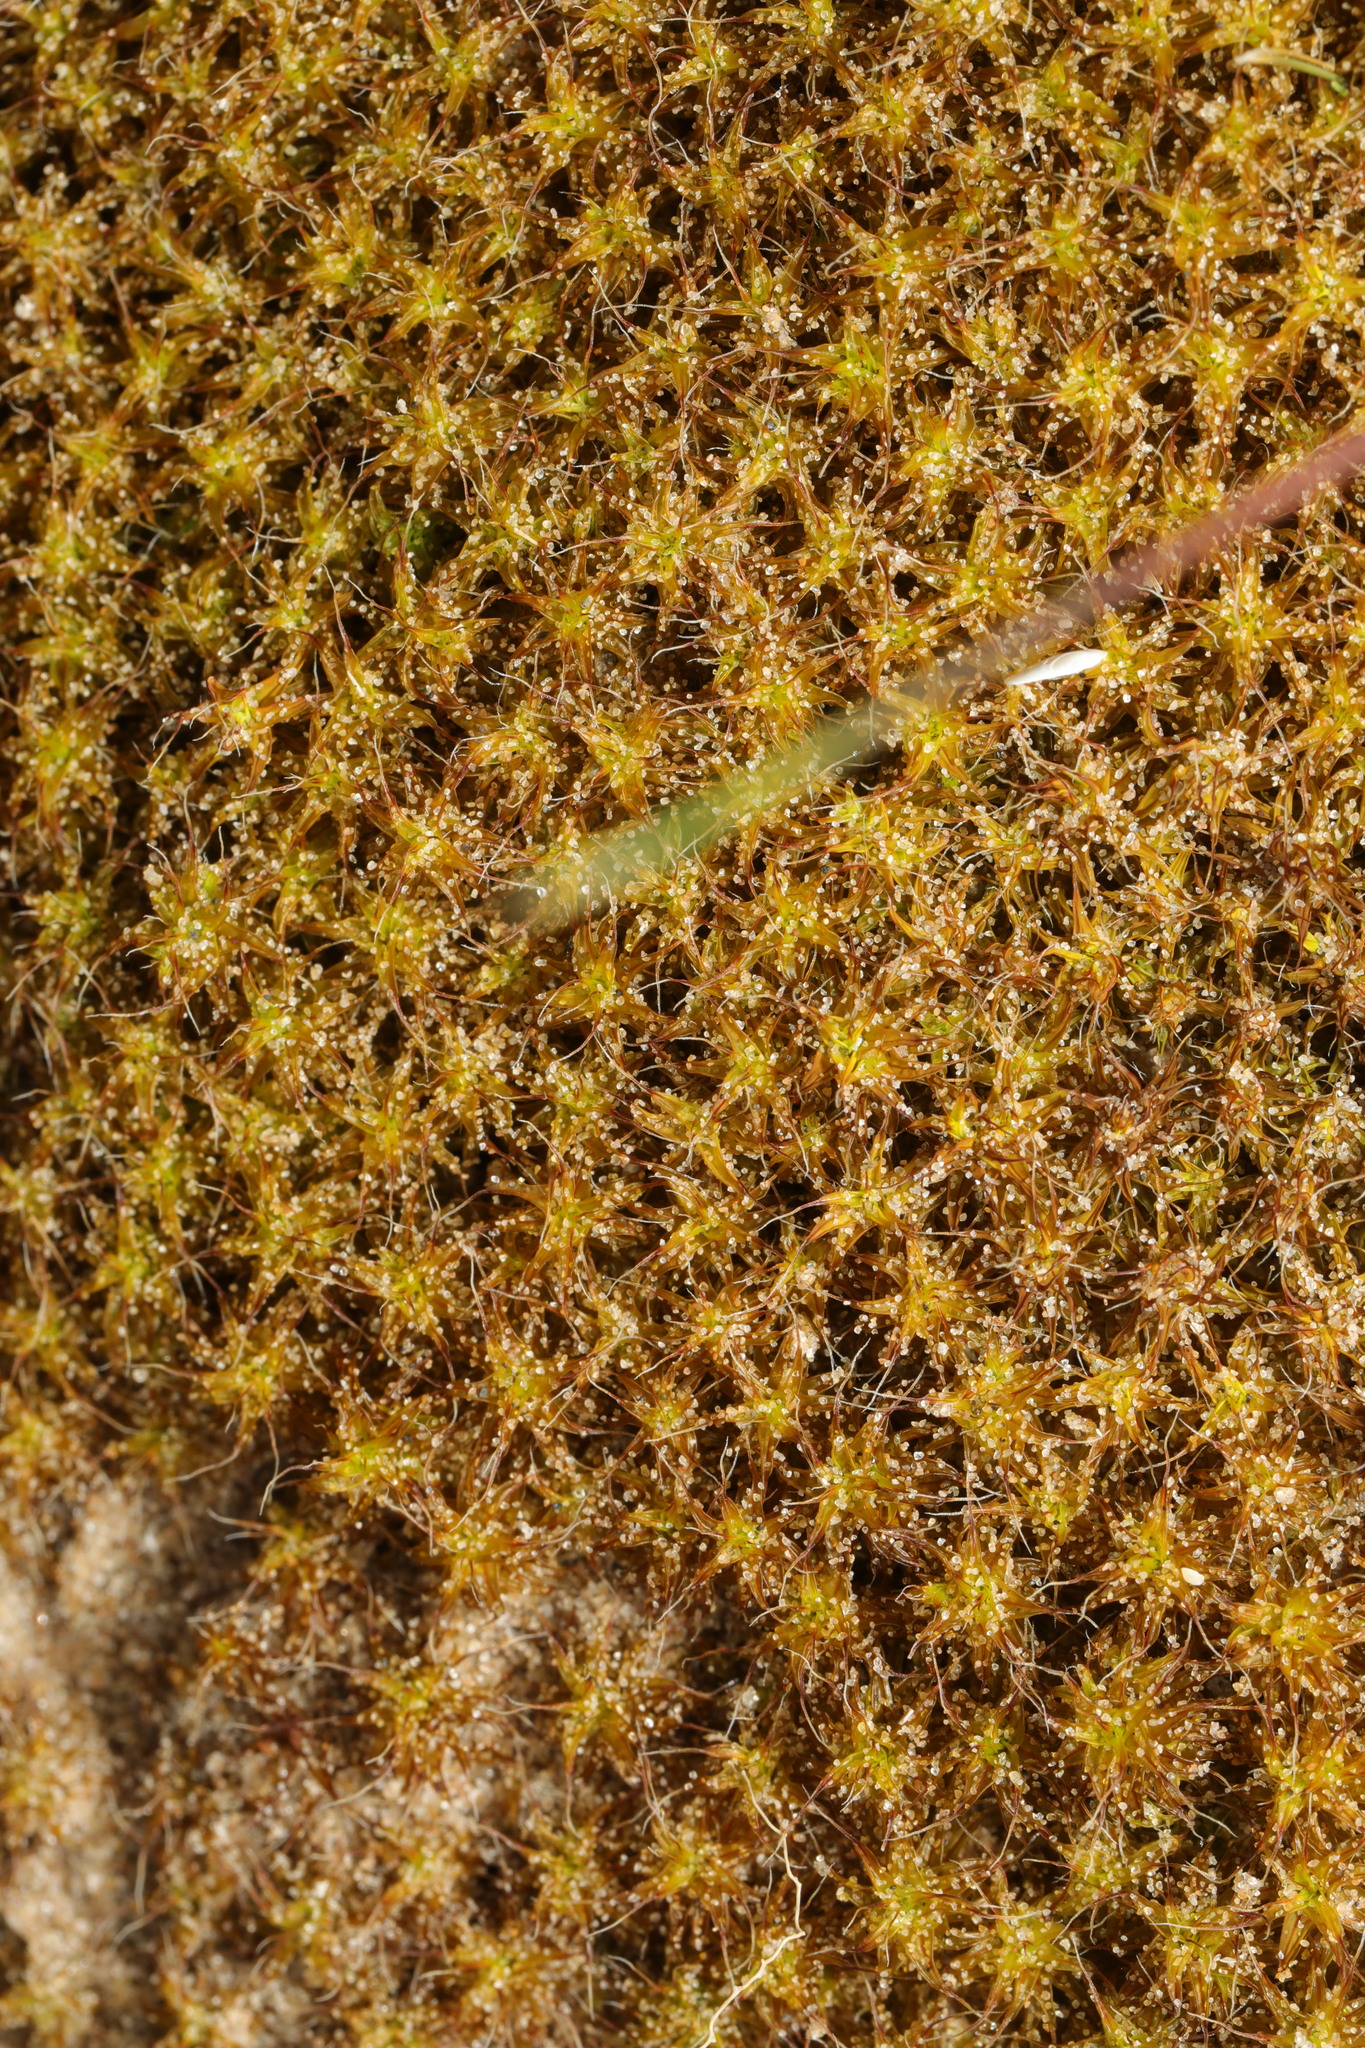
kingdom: Plantae
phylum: Bryophyta
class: Bryopsida
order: Pottiales
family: Pottiaceae
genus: Syntrichia
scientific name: Syntrichia ruralis
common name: Sidewalk screw moss
